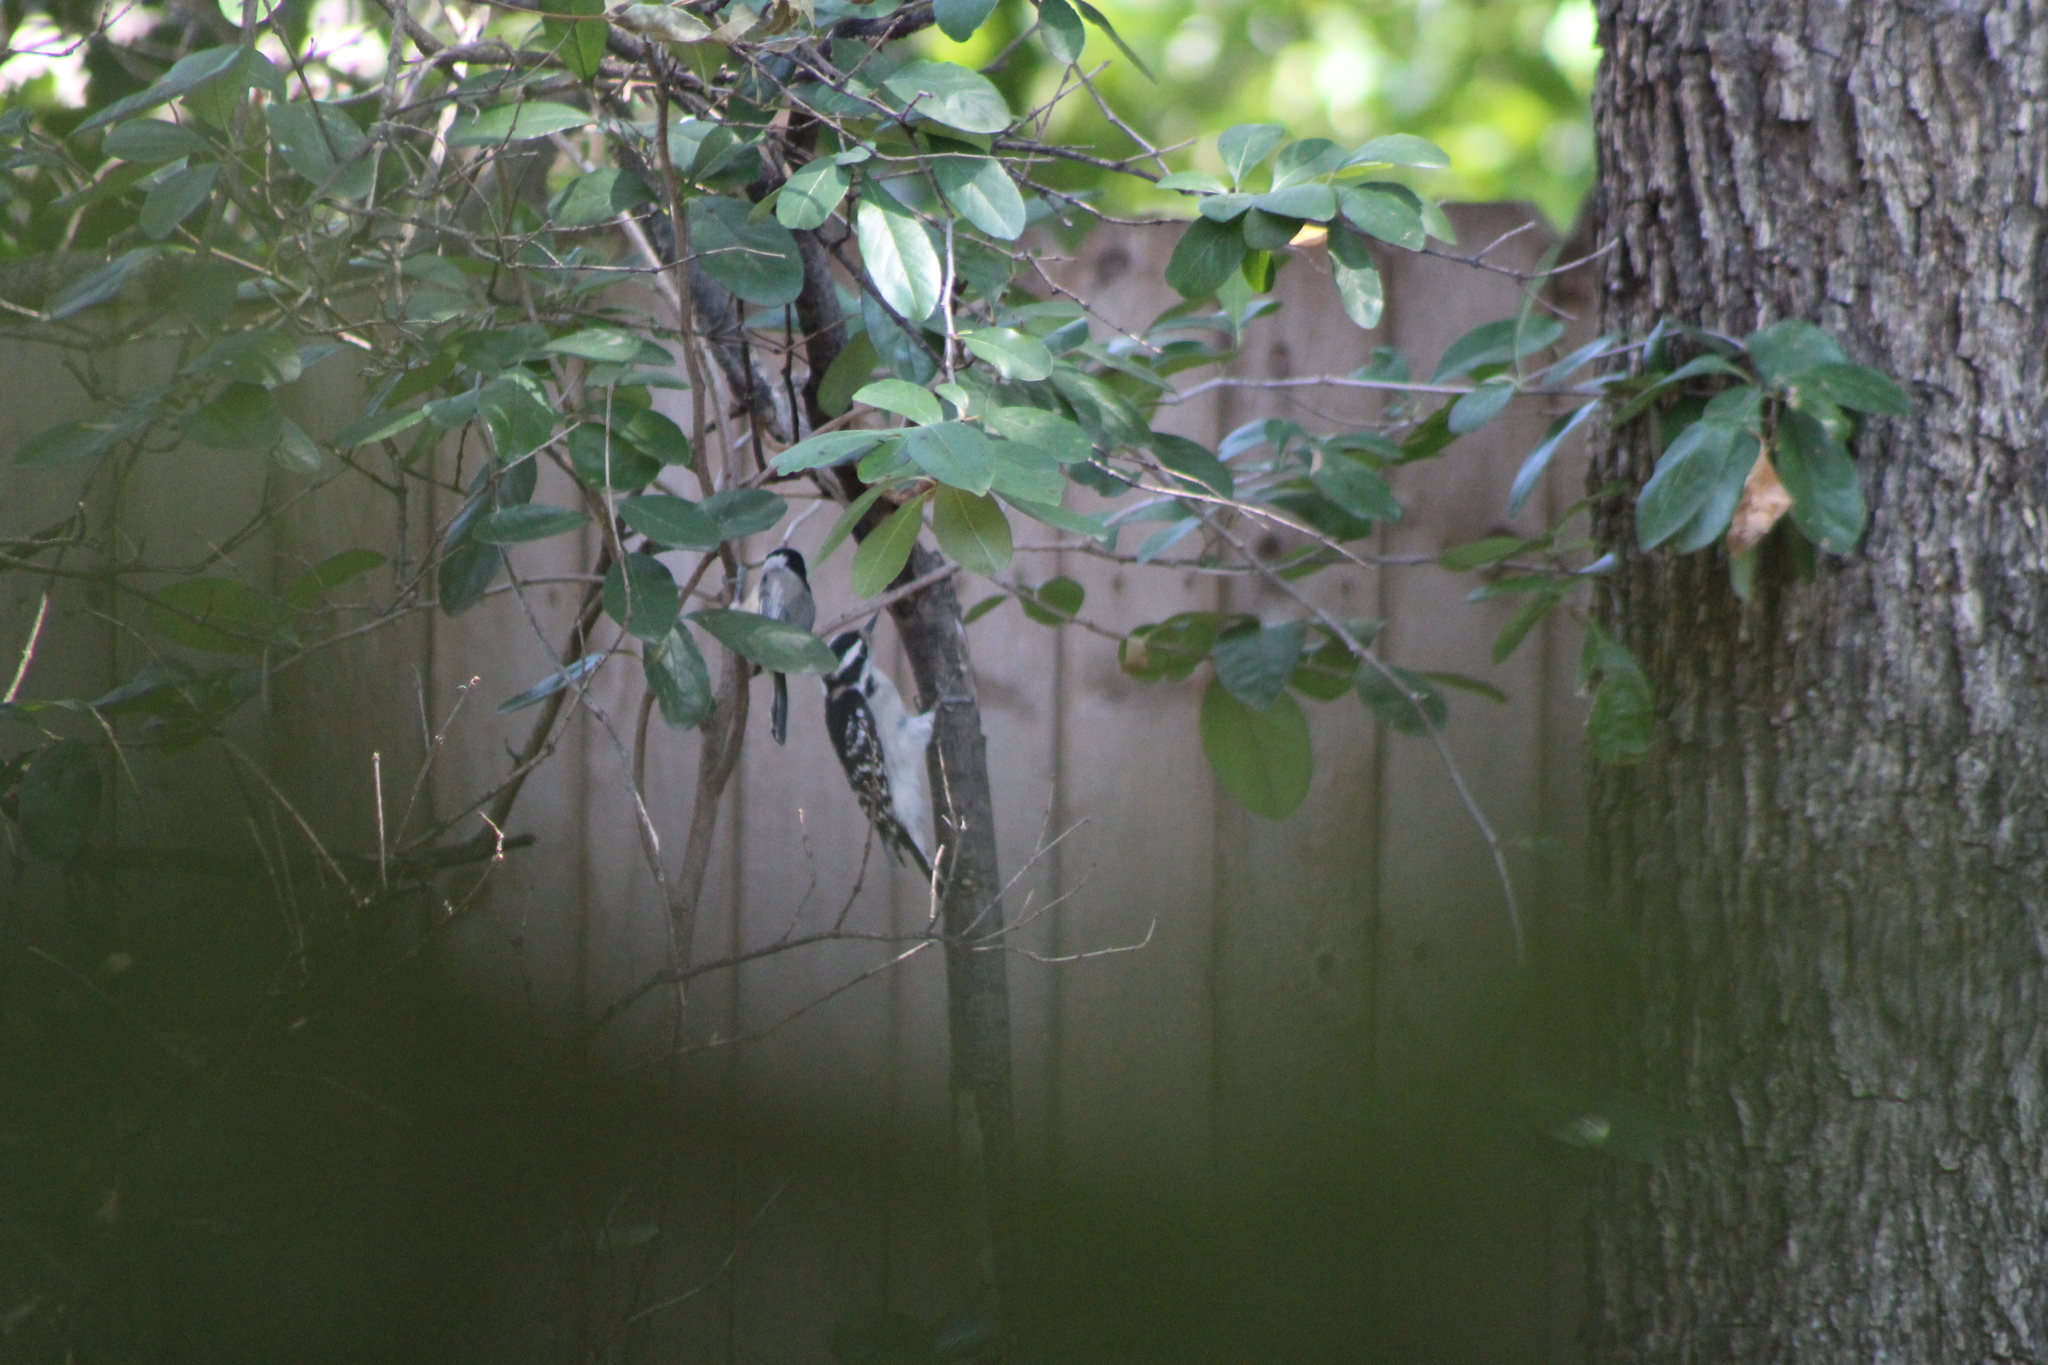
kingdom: Animalia
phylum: Chordata
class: Aves
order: Piciformes
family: Picidae
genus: Dryobates
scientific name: Dryobates pubescens
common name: Downy woodpecker
